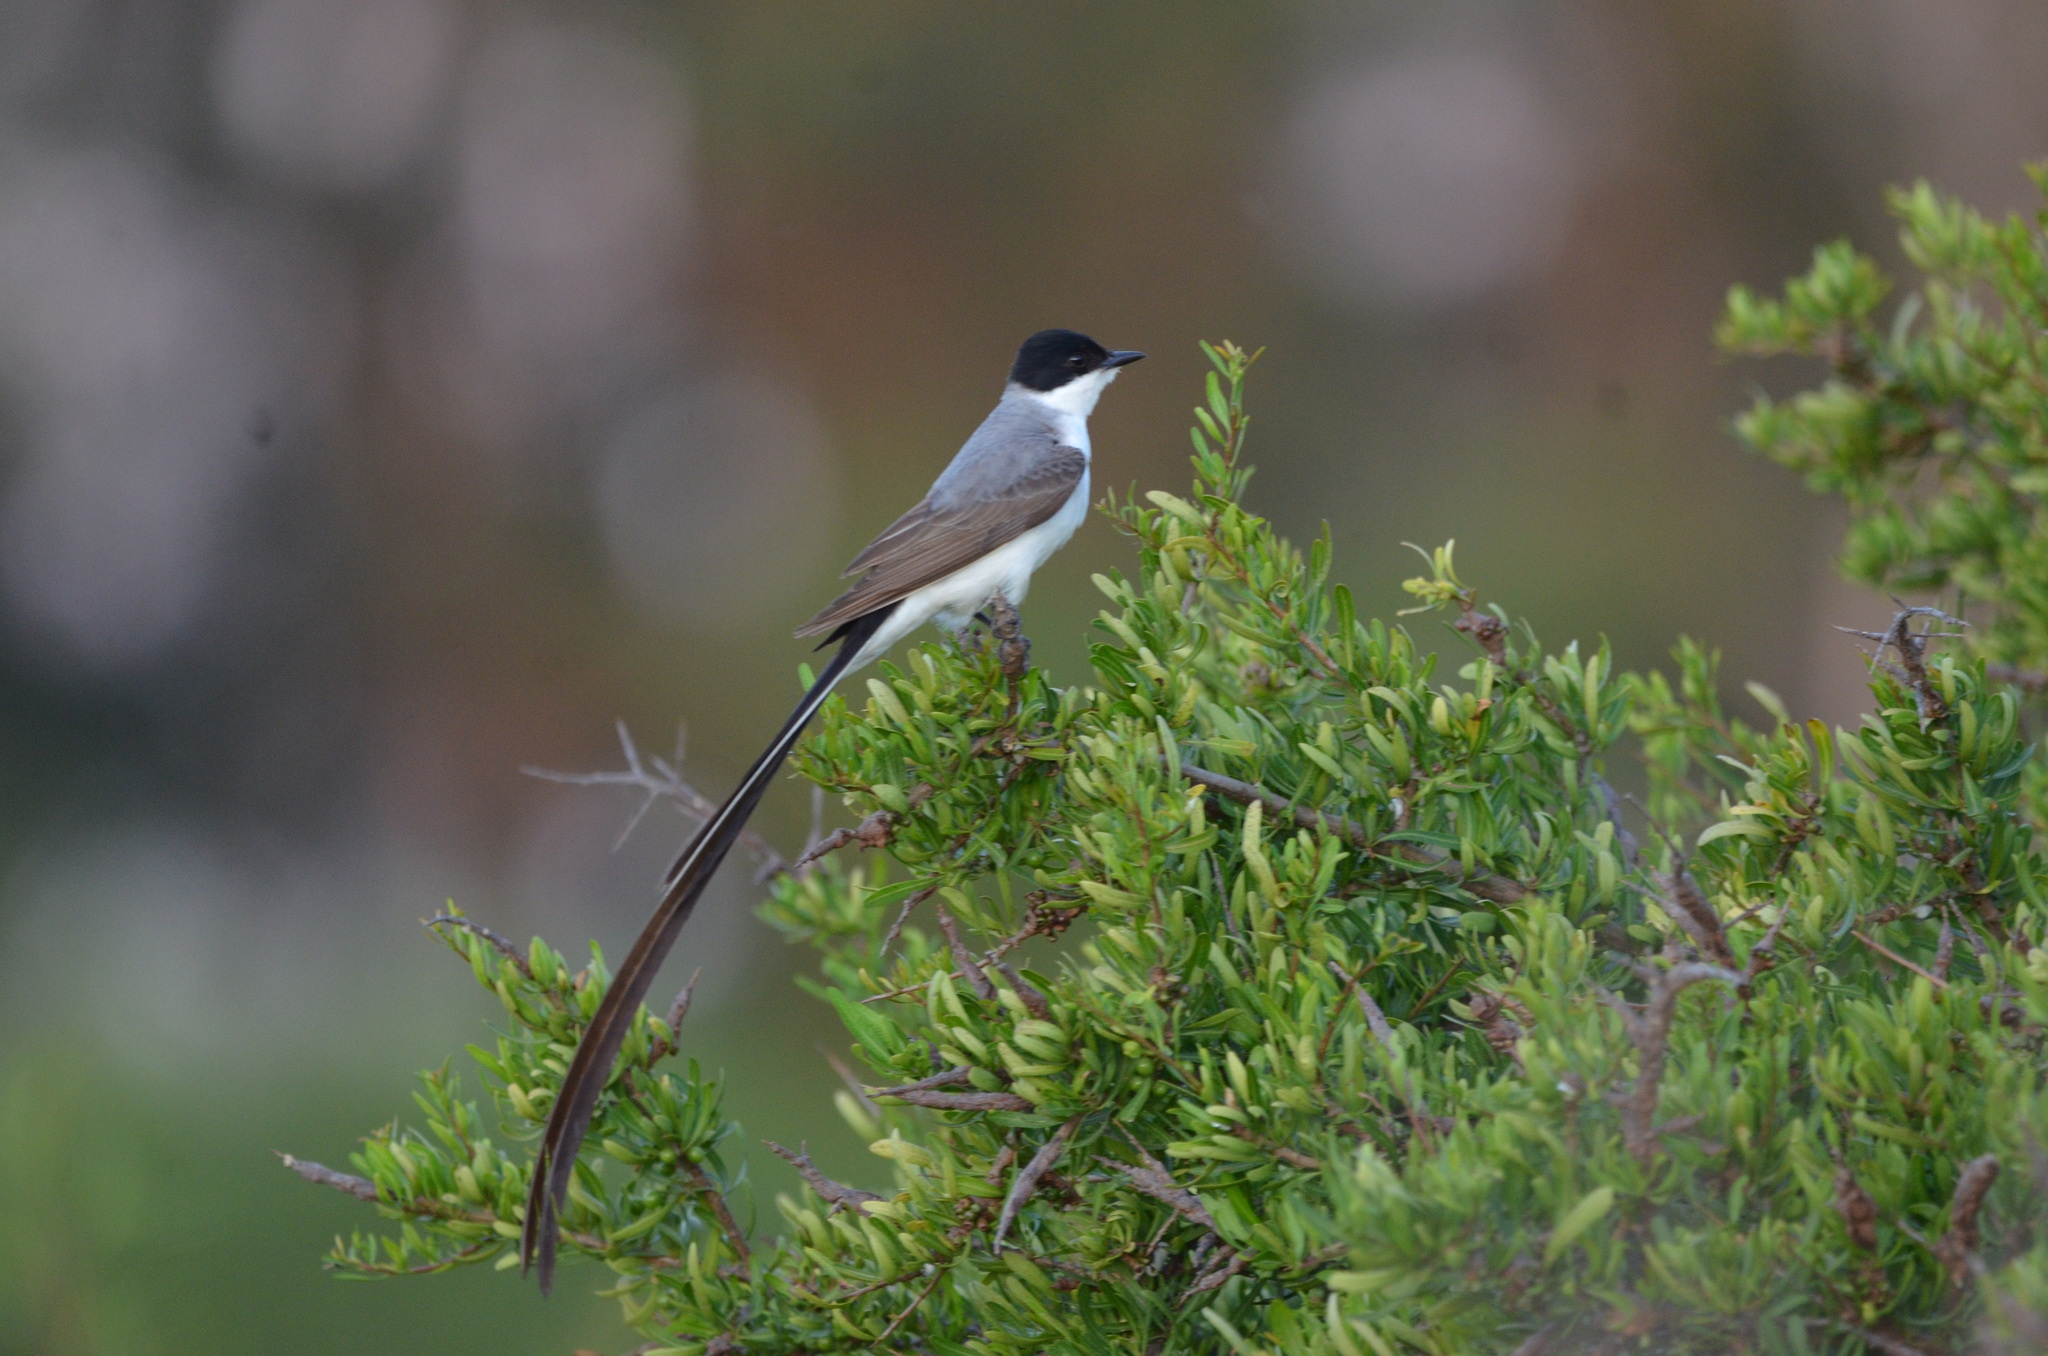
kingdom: Animalia
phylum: Chordata
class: Aves
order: Passeriformes
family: Tyrannidae
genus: Tyrannus
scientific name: Tyrannus savana
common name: Fork-tailed flycatcher
